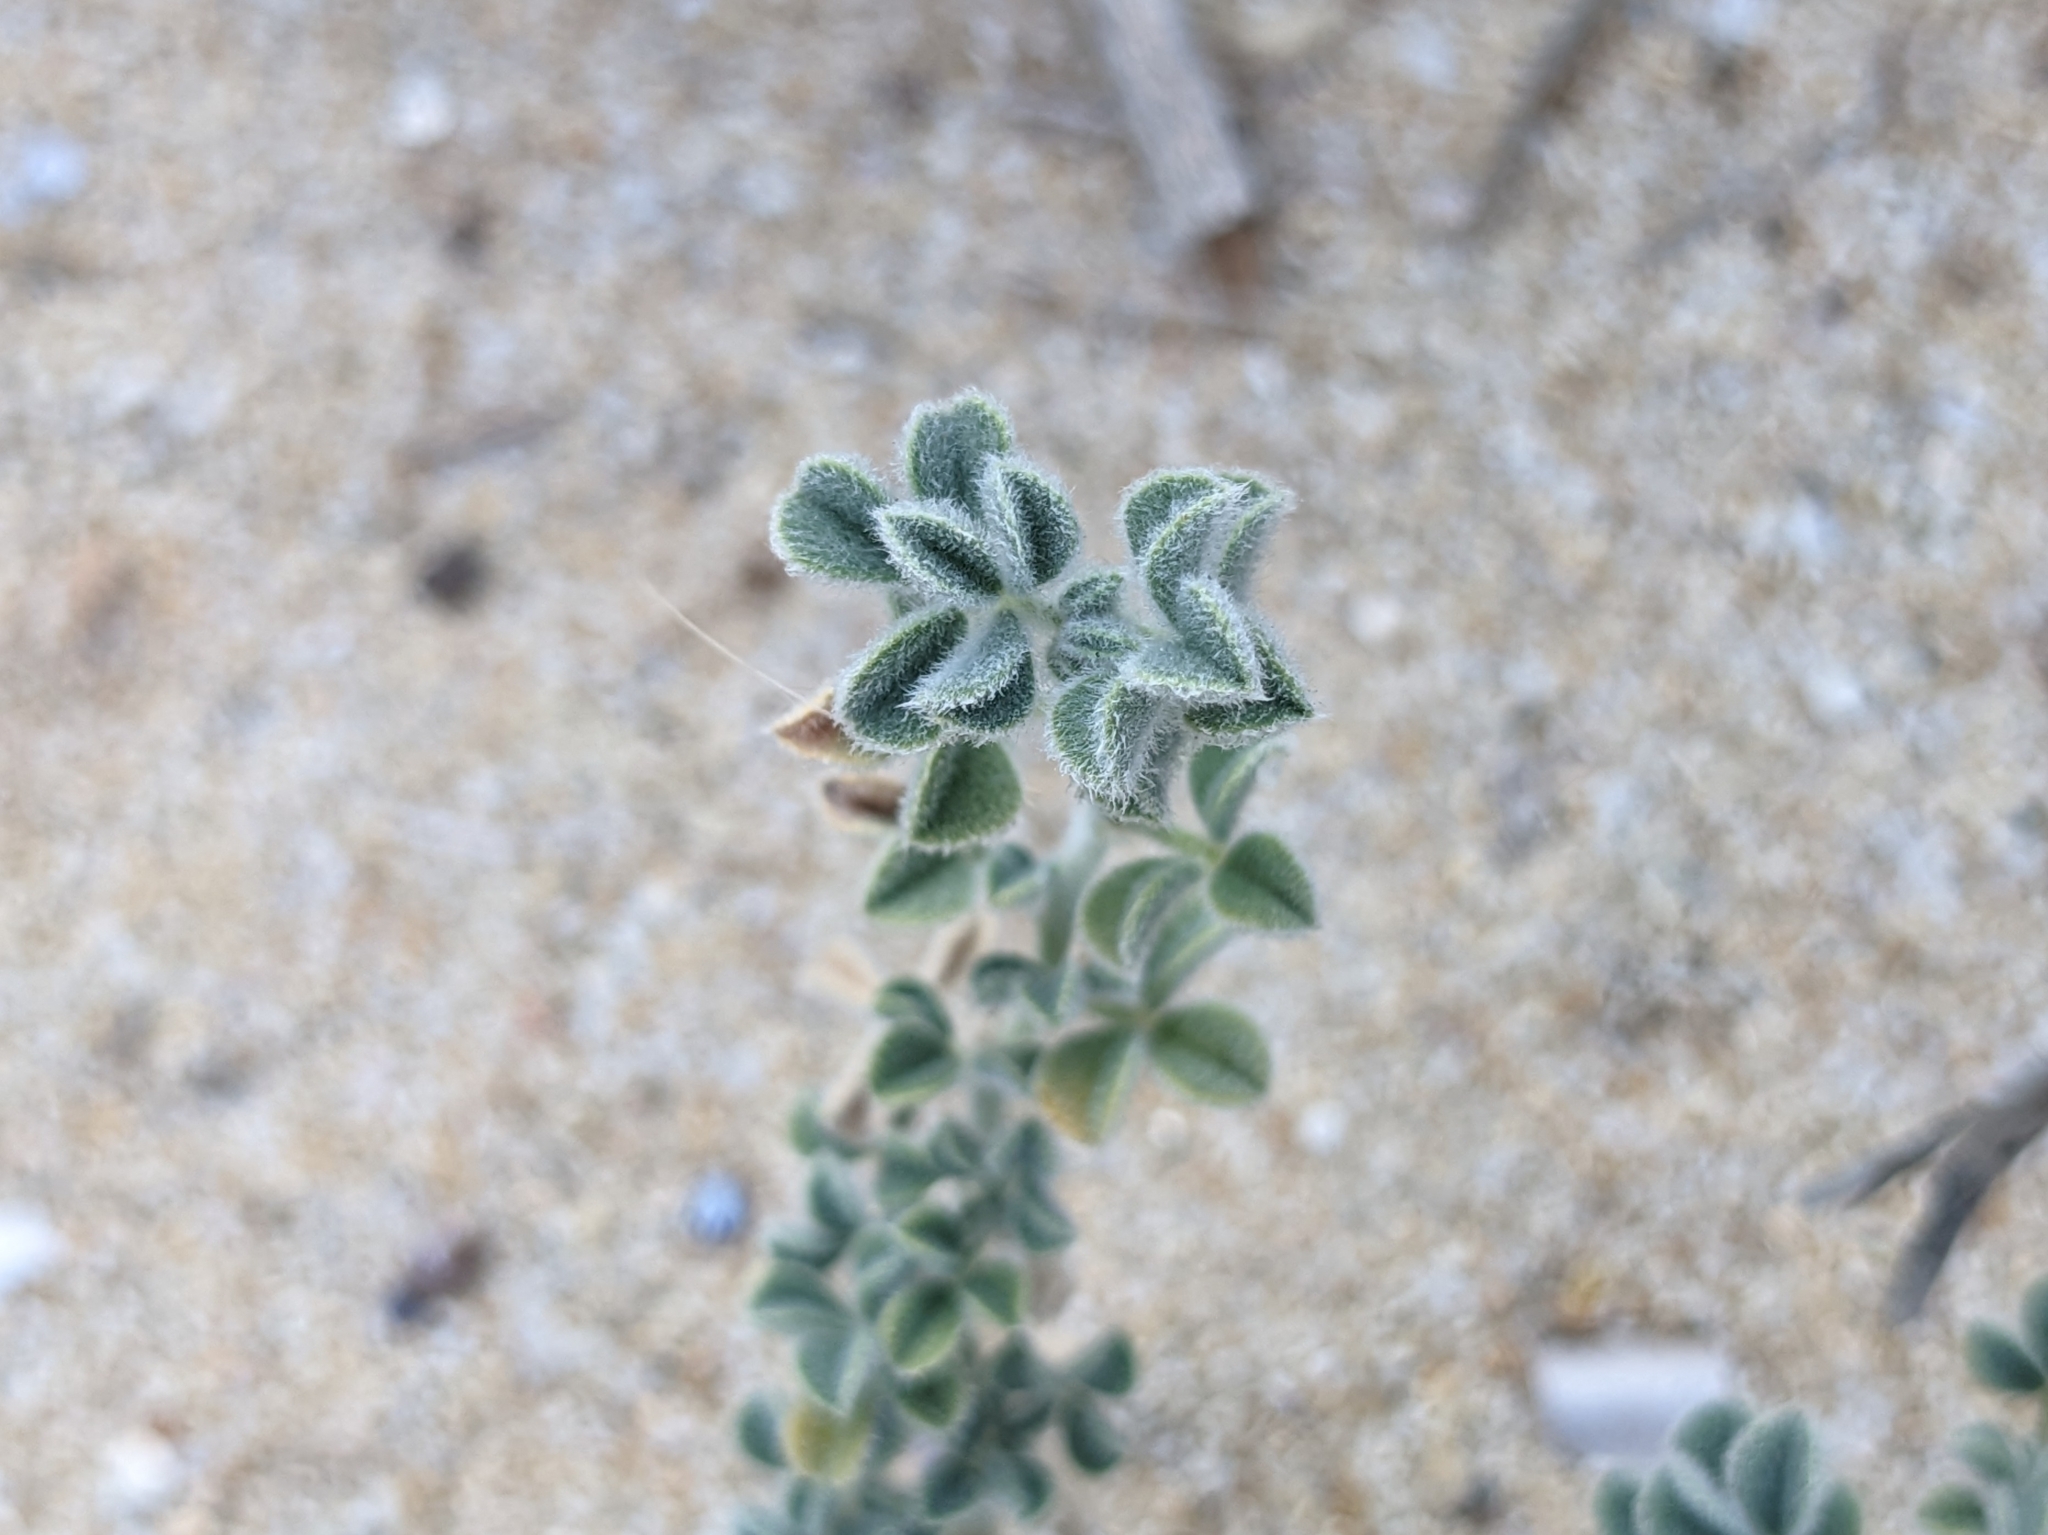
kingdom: Plantae
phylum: Tracheophyta
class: Magnoliopsida
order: Fabales
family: Fabaceae
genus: Medicago
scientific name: Medicago marina
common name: Sea medick
